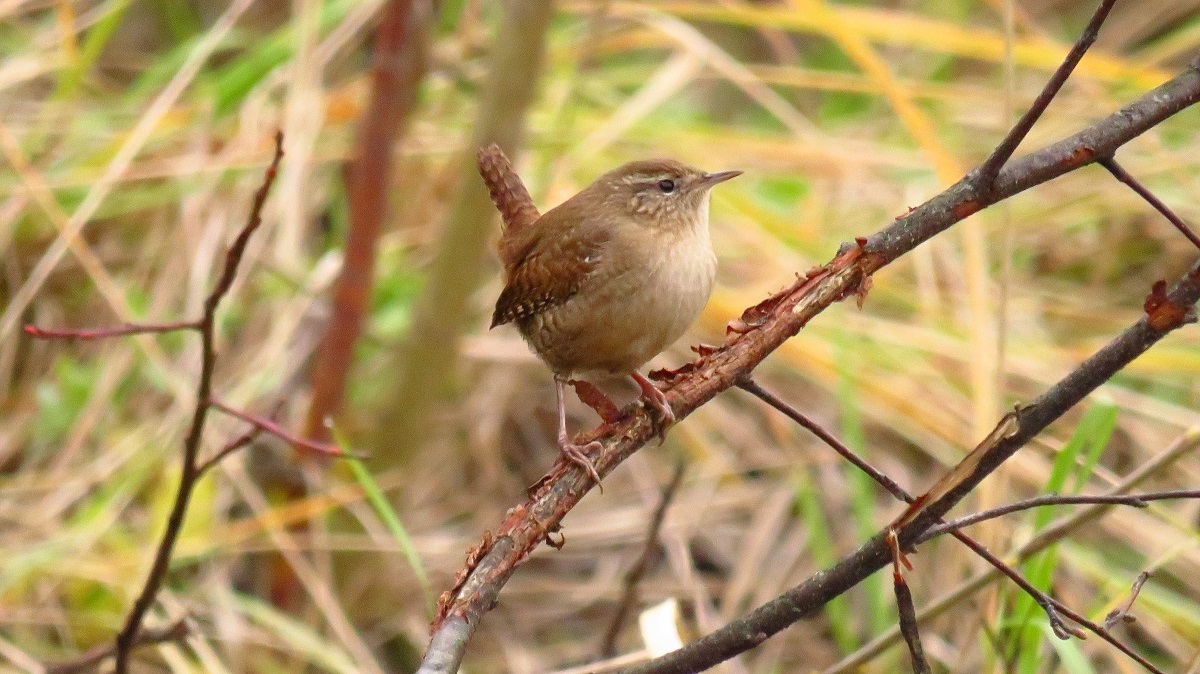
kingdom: Animalia
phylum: Chordata
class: Aves
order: Passeriformes
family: Troglodytidae
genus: Troglodytes
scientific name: Troglodytes troglodytes
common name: Eurasian wren
